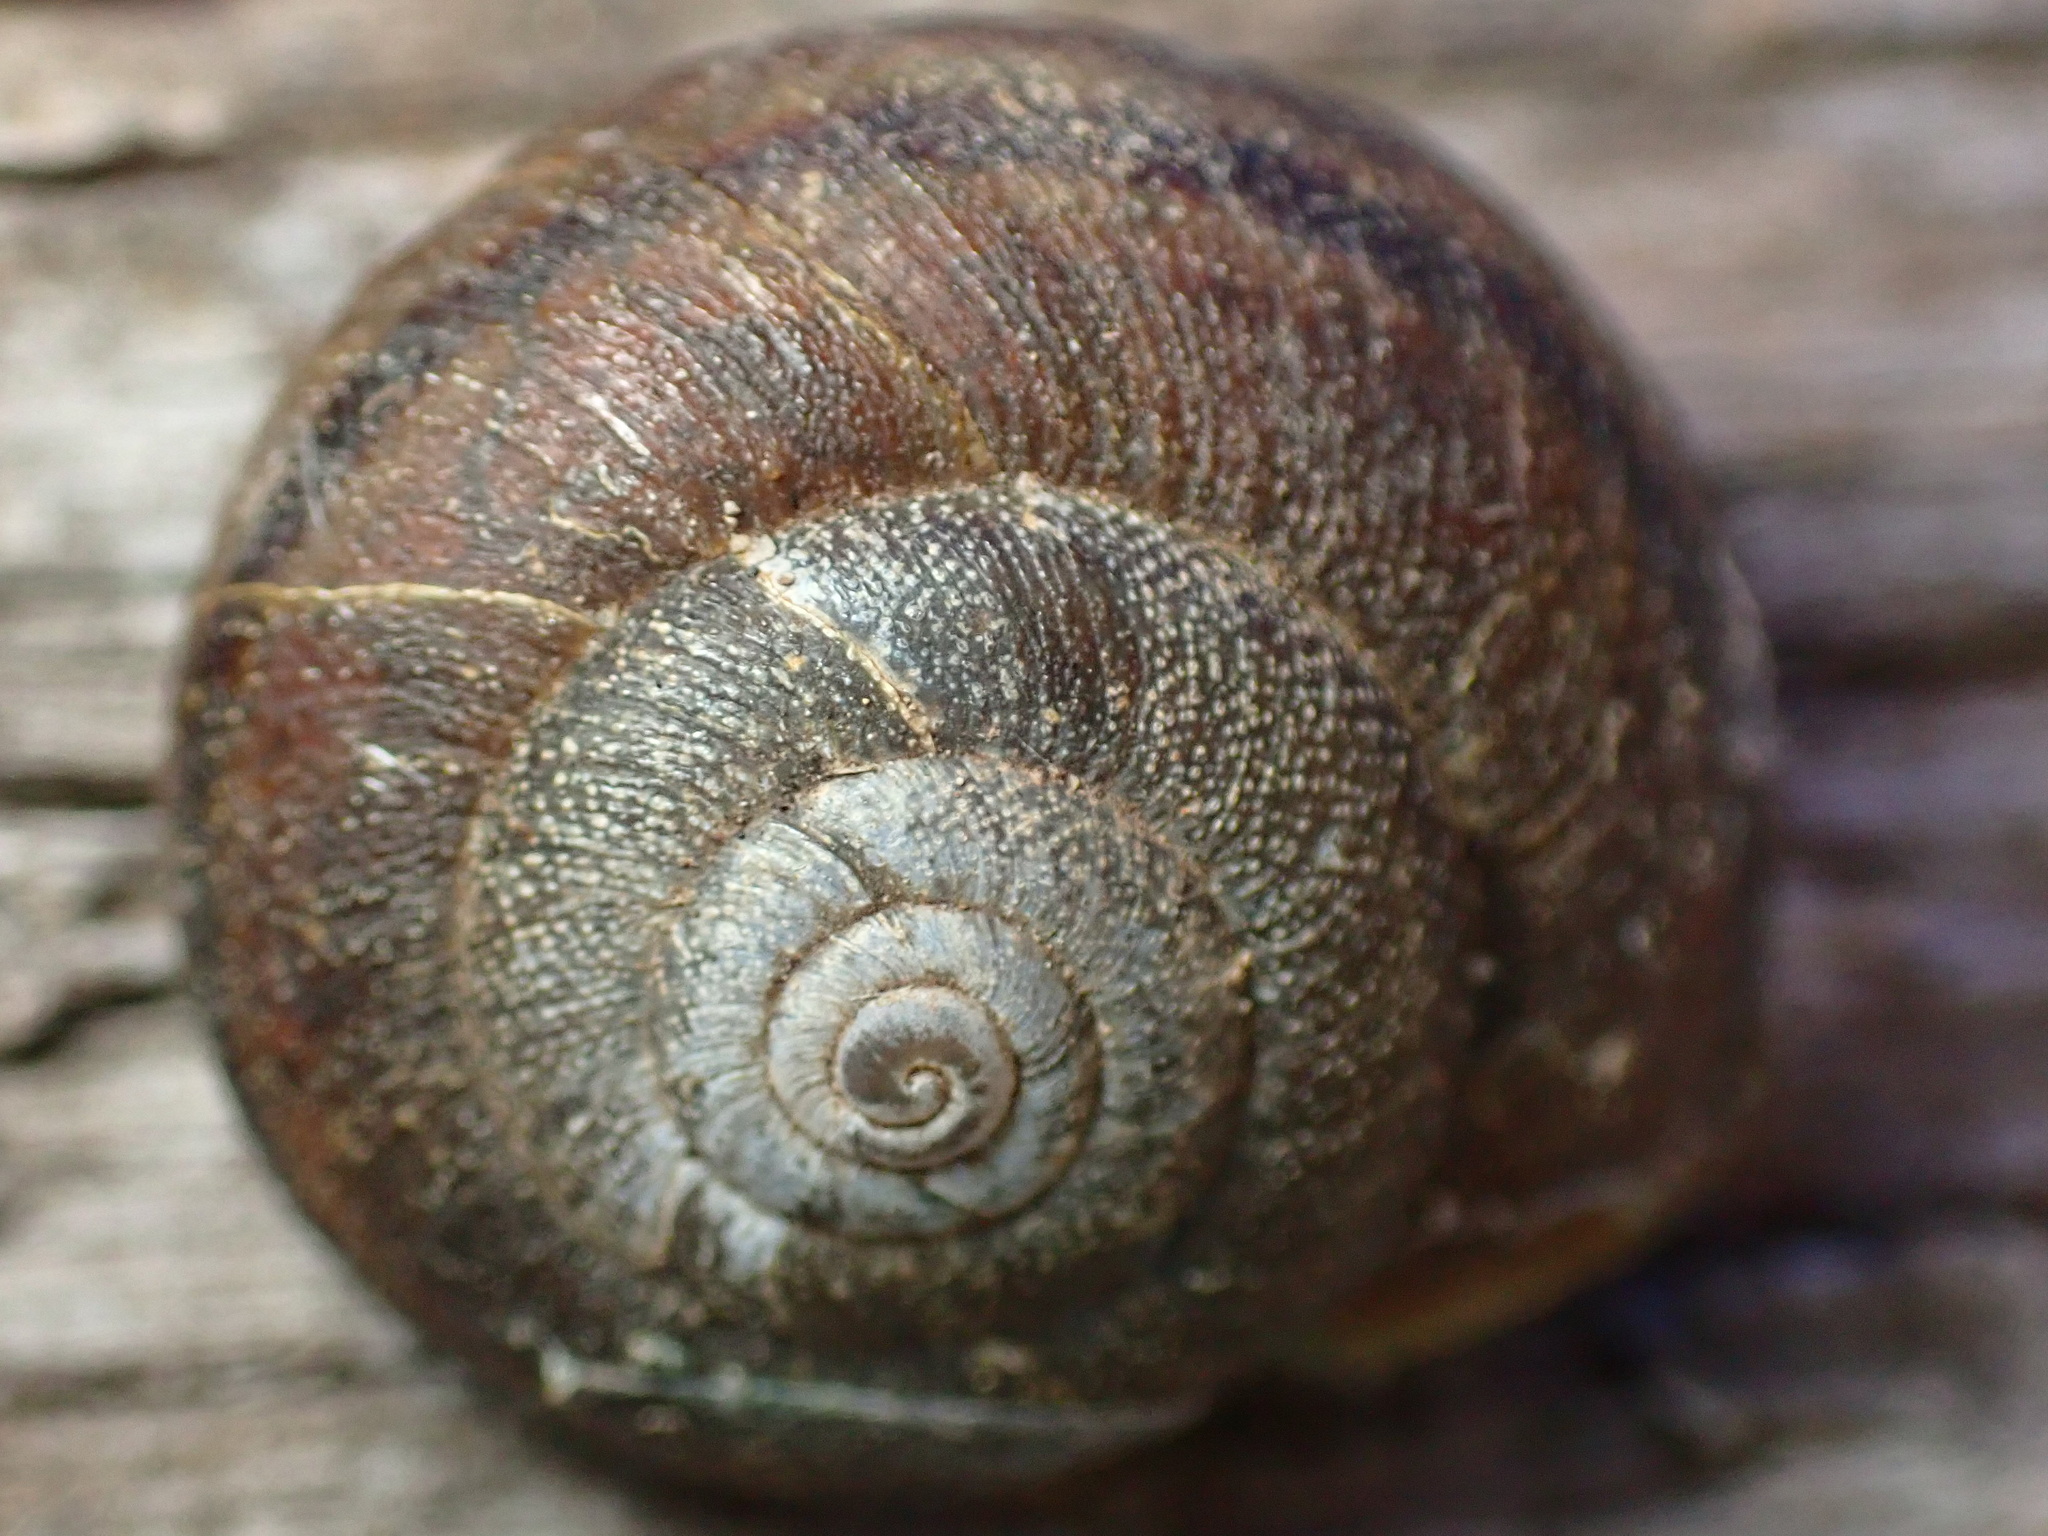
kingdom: Animalia
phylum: Mollusca
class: Gastropoda
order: Stylommatophora
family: Xanthonychidae
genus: Helminthoglypta
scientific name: Helminthoglypta walkeriana
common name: Banded dune snail
